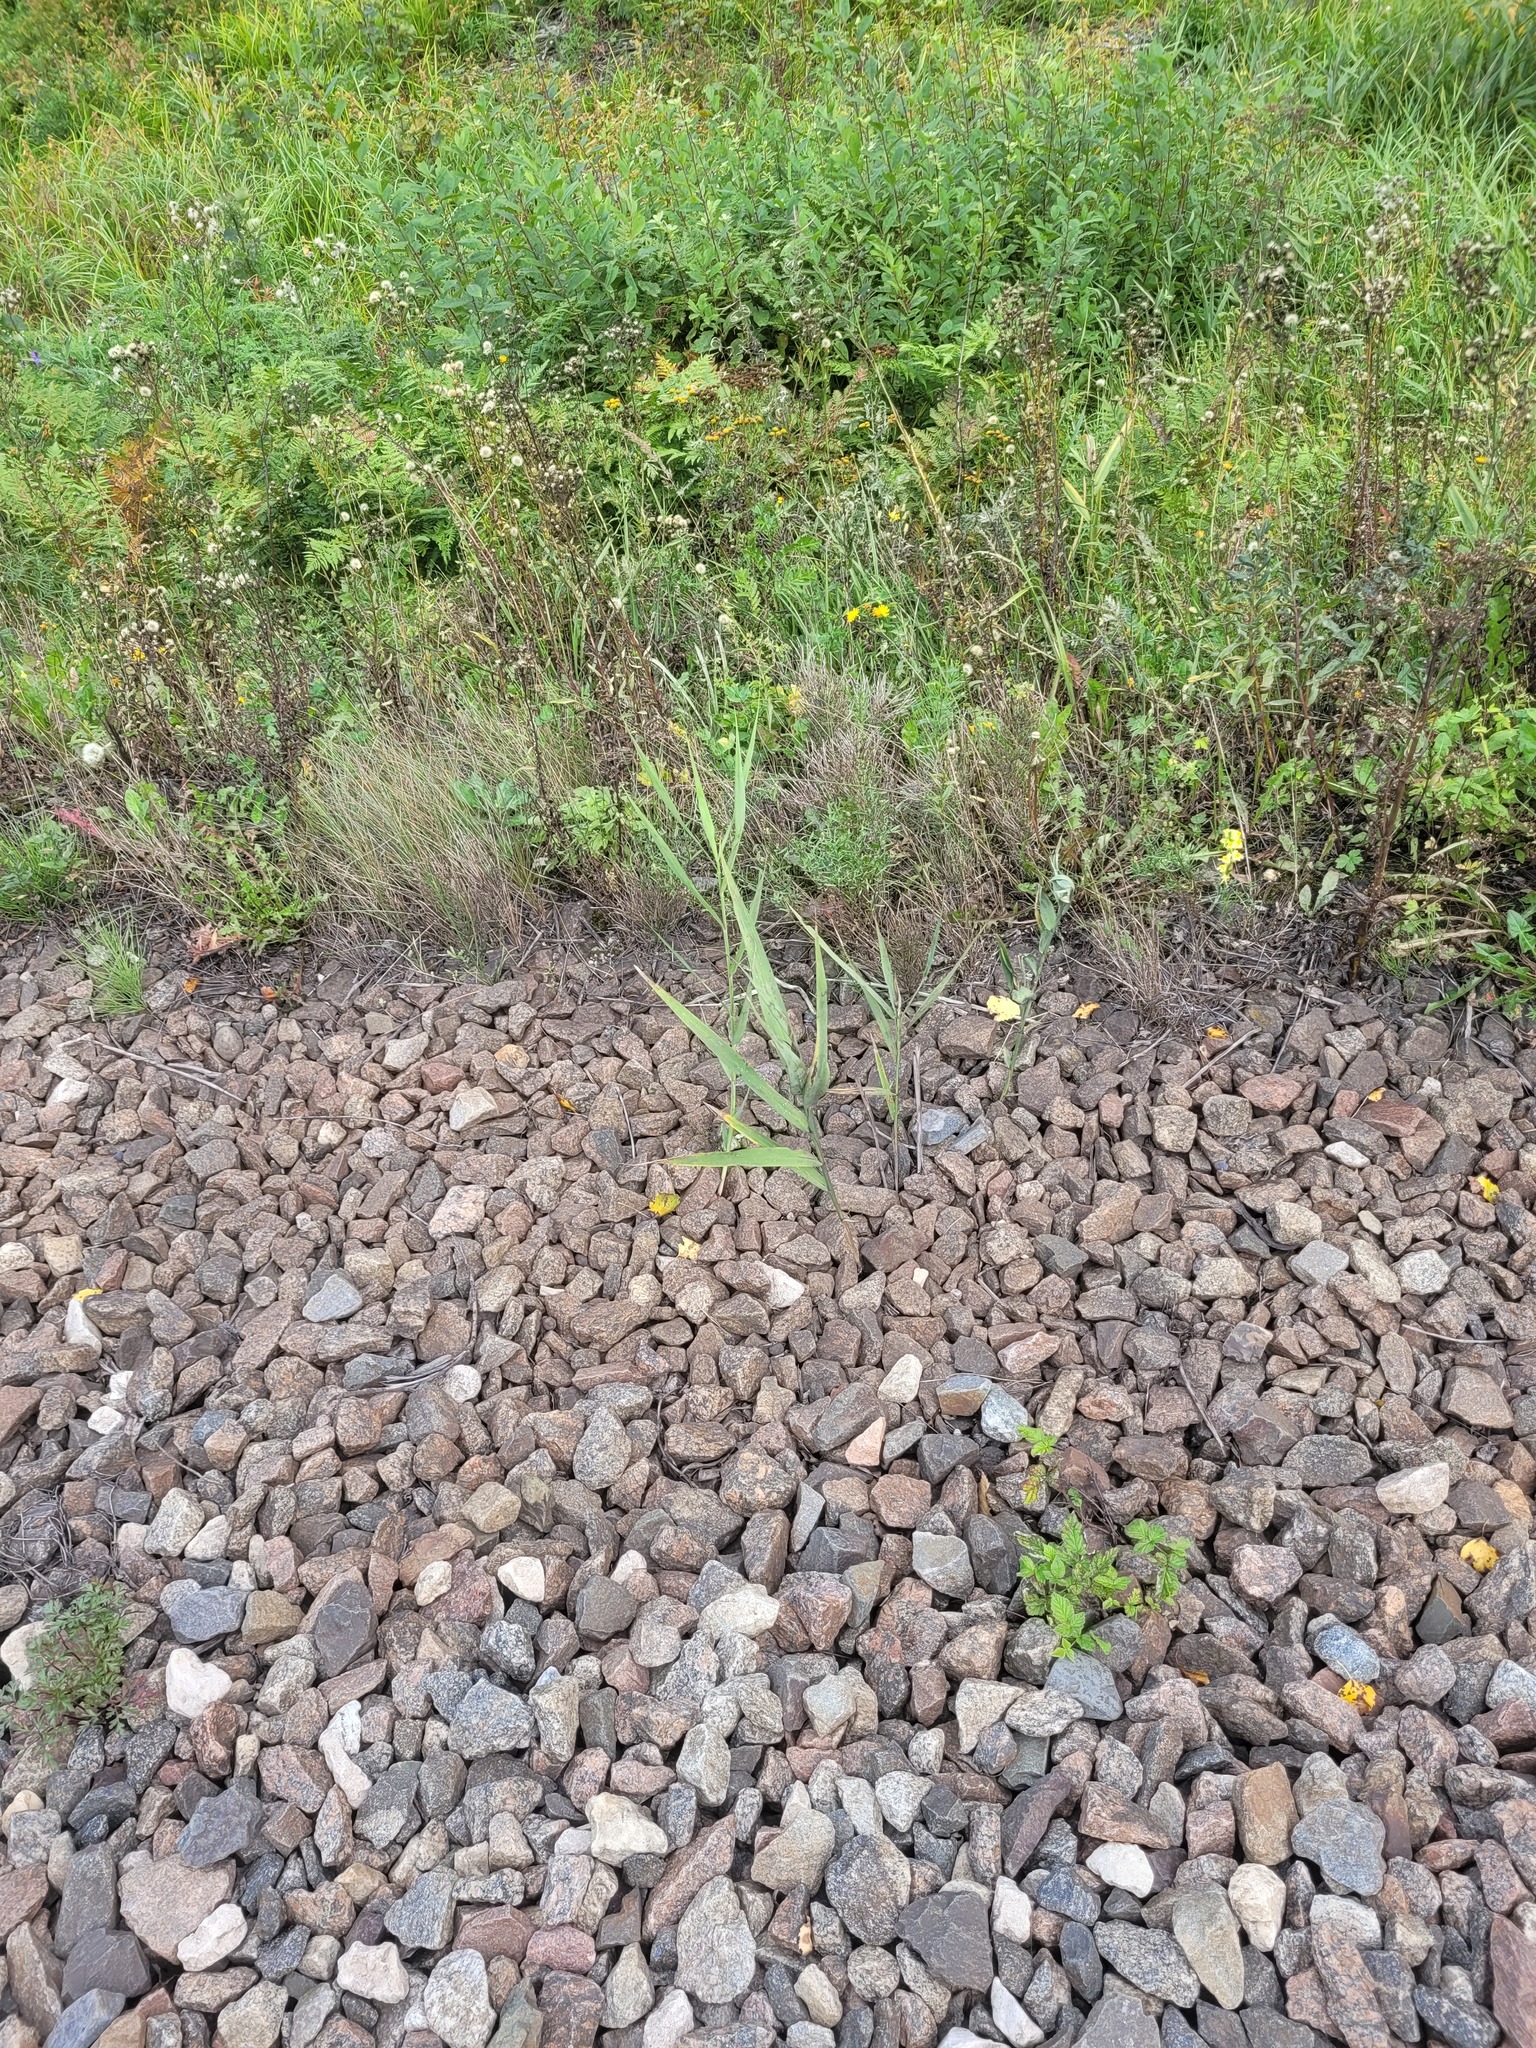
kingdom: Plantae
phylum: Tracheophyta
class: Liliopsida
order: Poales
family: Poaceae
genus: Phragmites
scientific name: Phragmites australis
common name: Common reed
